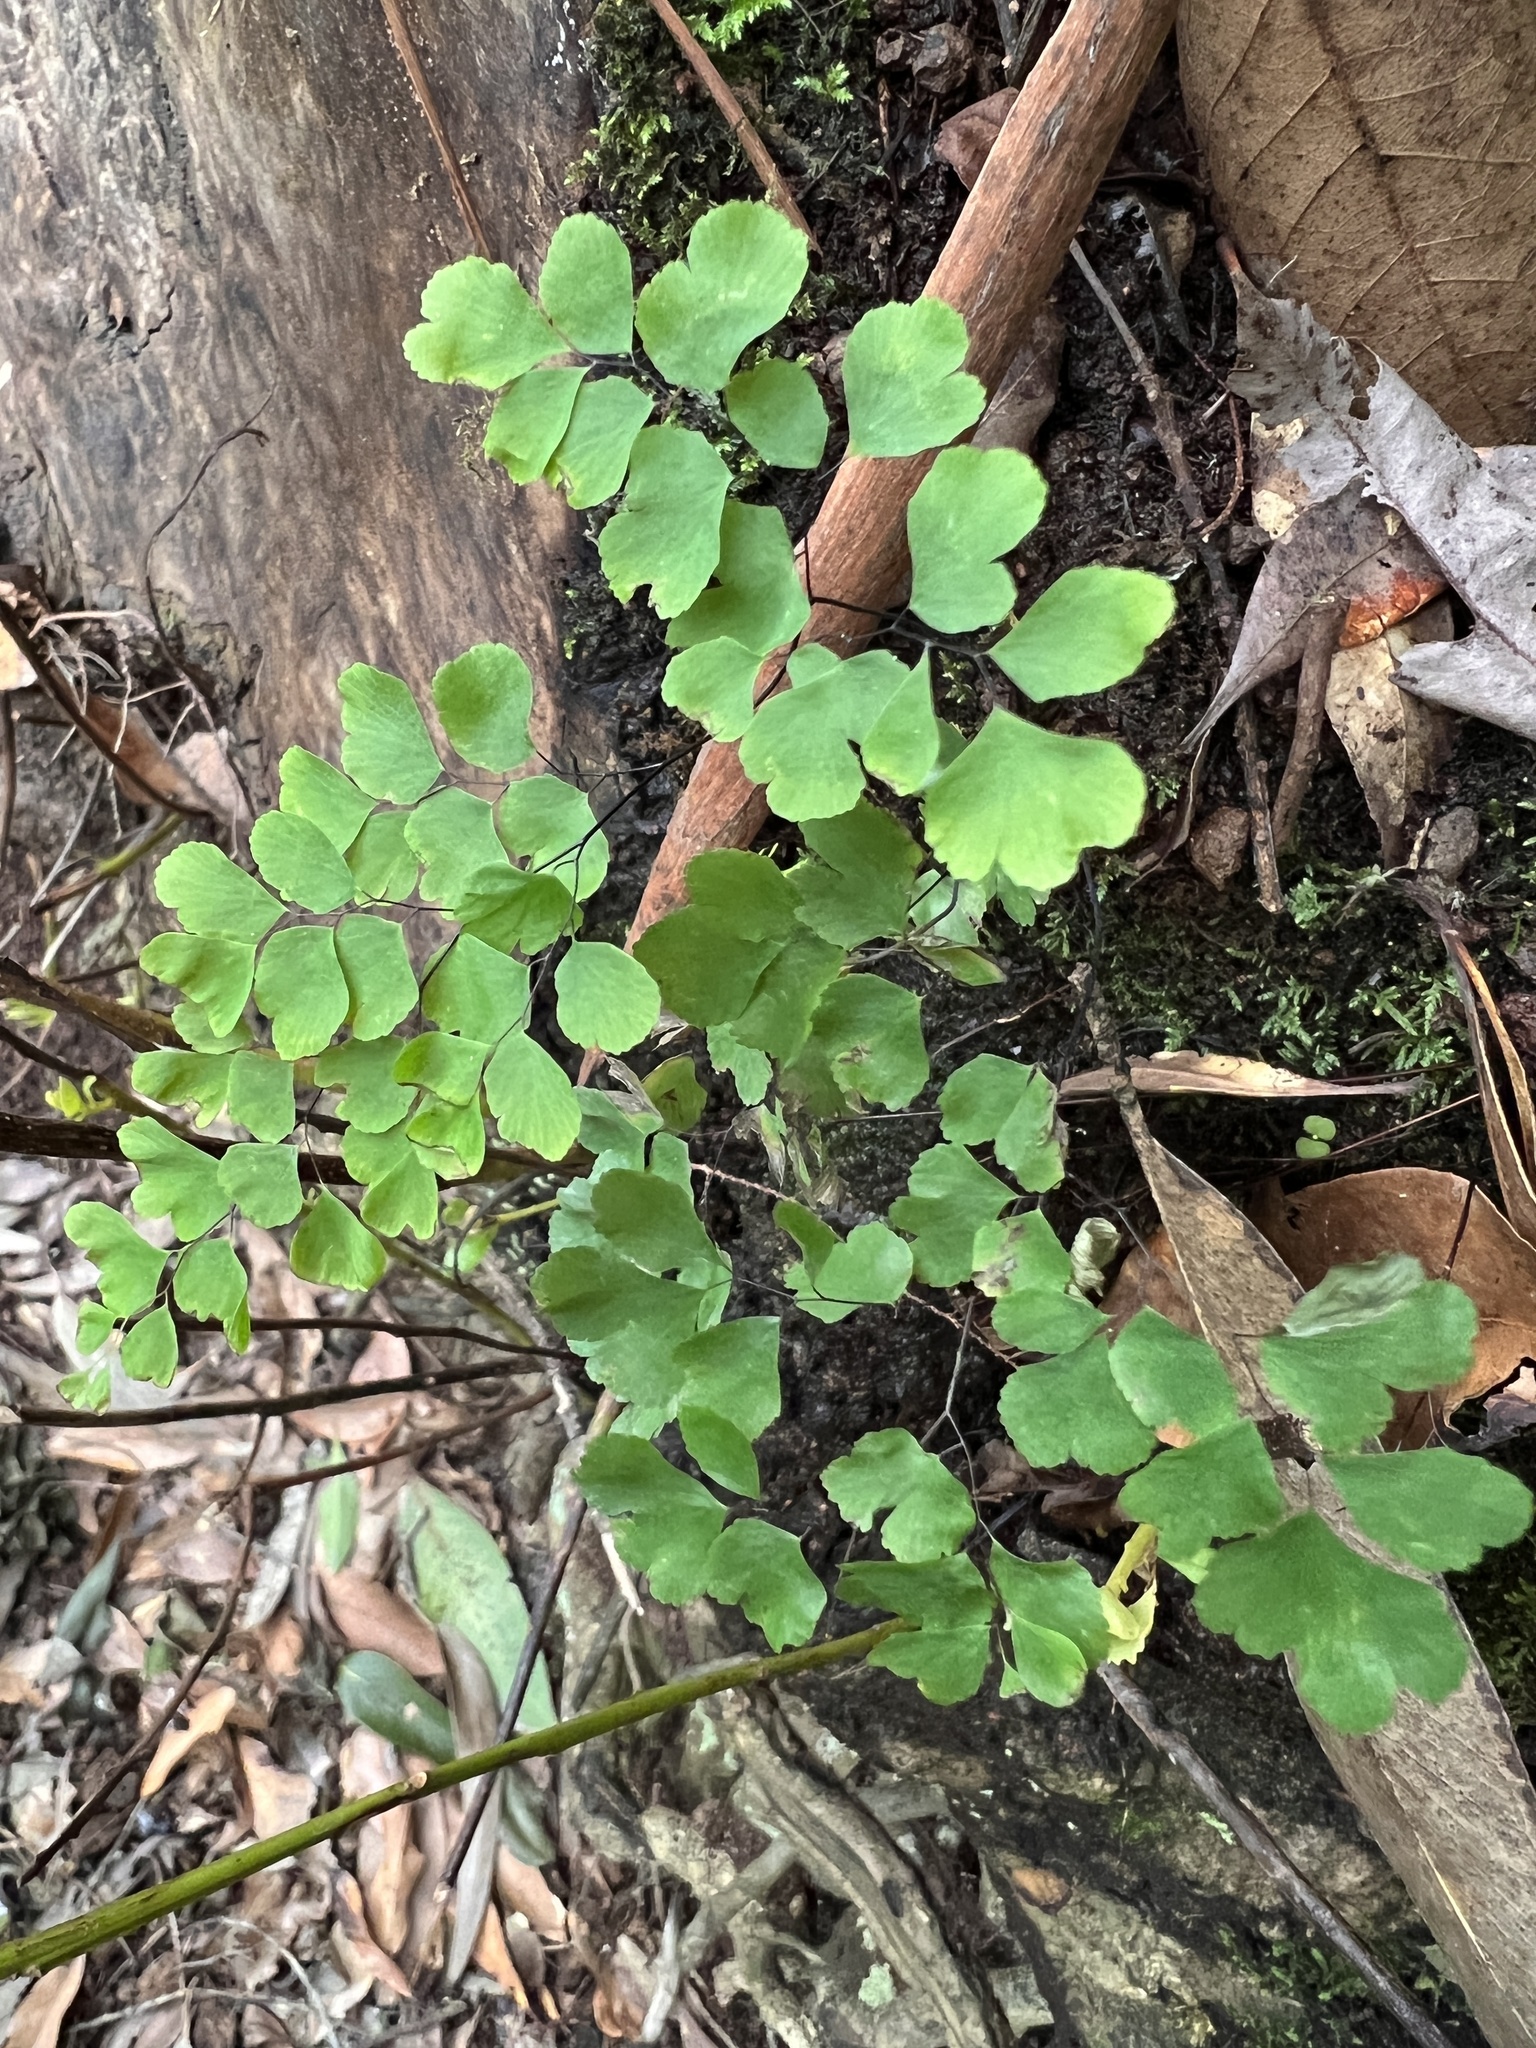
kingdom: Plantae
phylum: Tracheophyta
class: Polypodiopsida
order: Polypodiales
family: Pteridaceae
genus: Adiantum
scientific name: Adiantum raddianum
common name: Delta maidenhair fern
